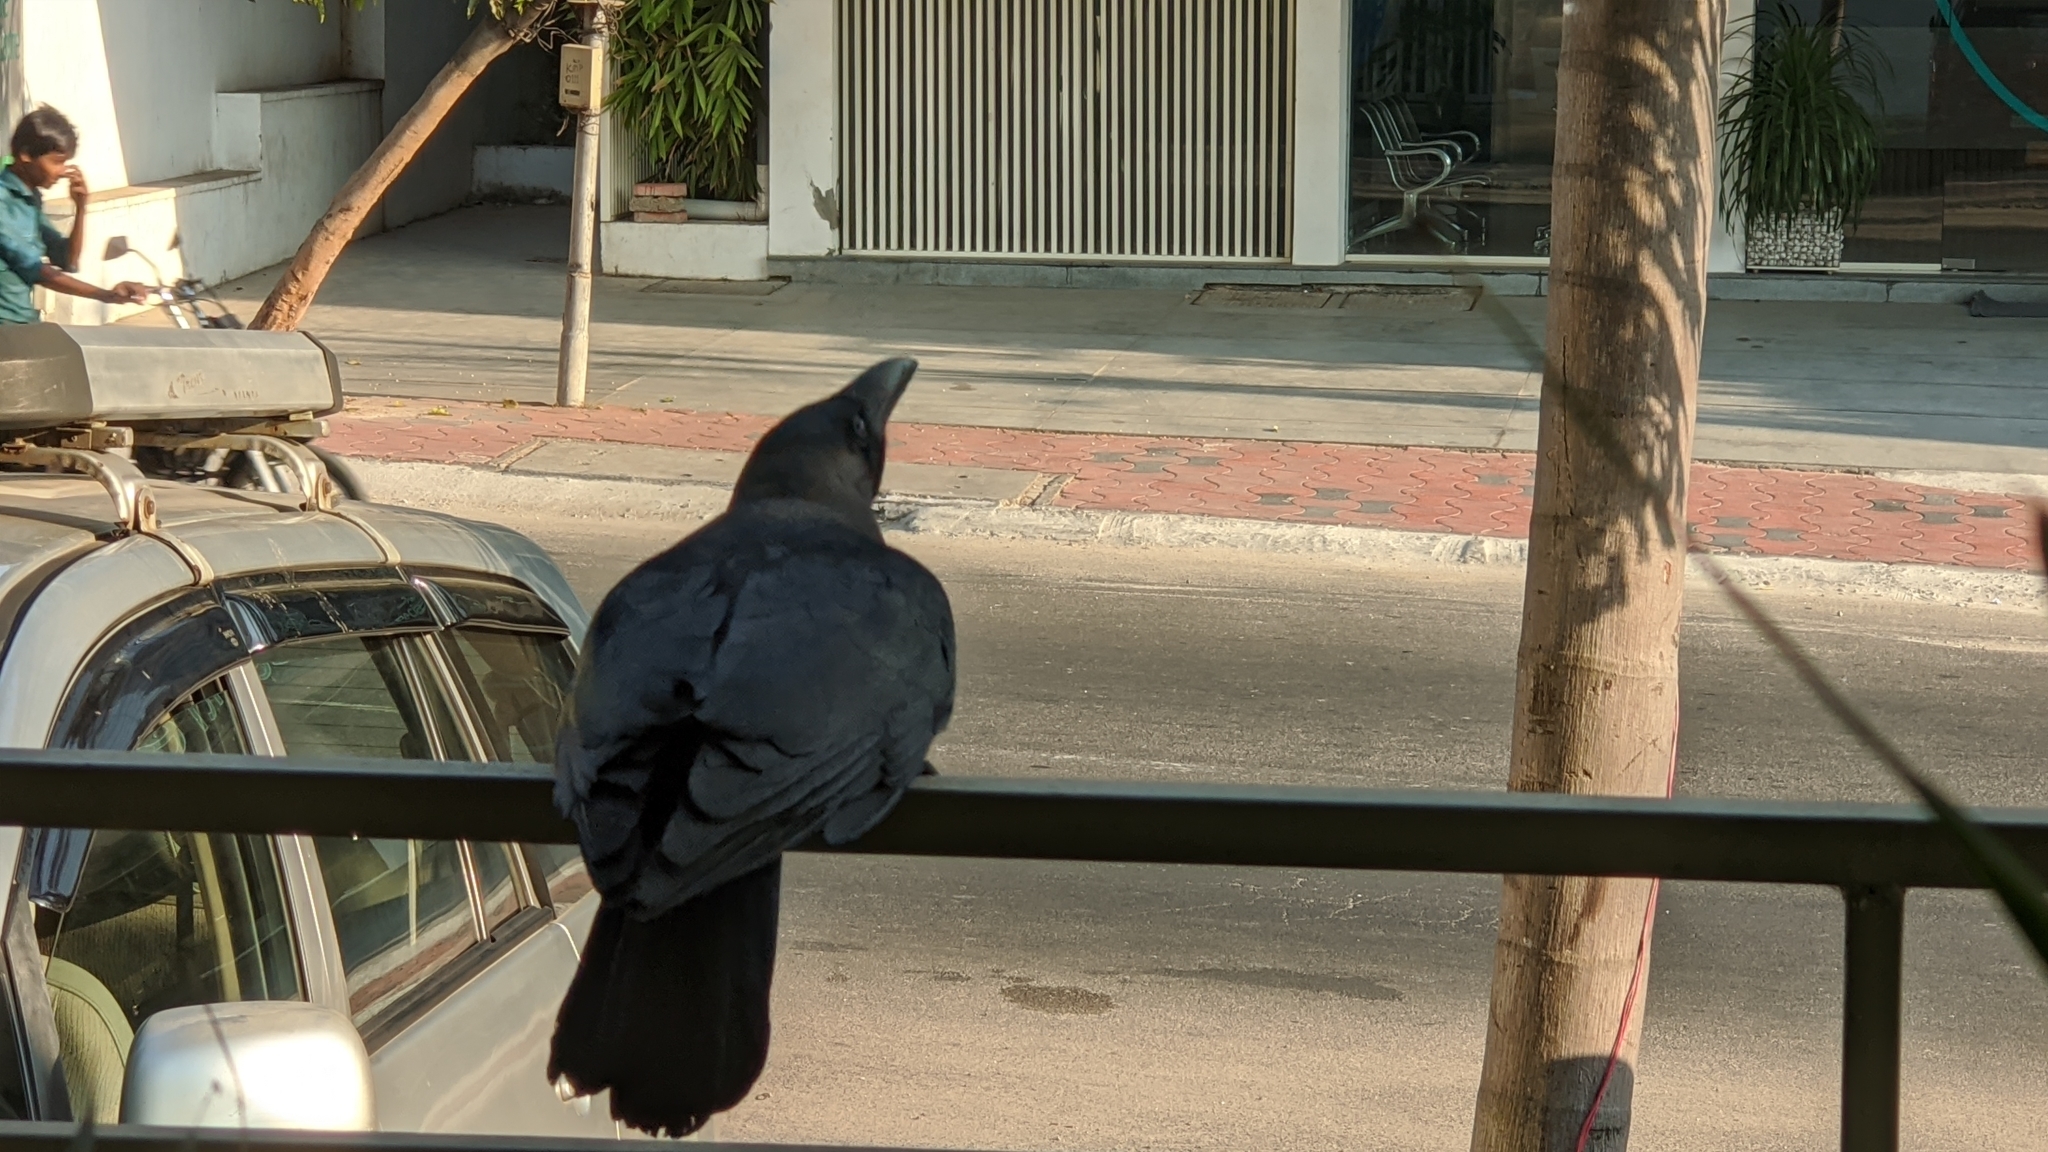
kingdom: Animalia
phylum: Chordata
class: Aves
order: Passeriformes
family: Corvidae
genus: Corvus
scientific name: Corvus splendens
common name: House crow
